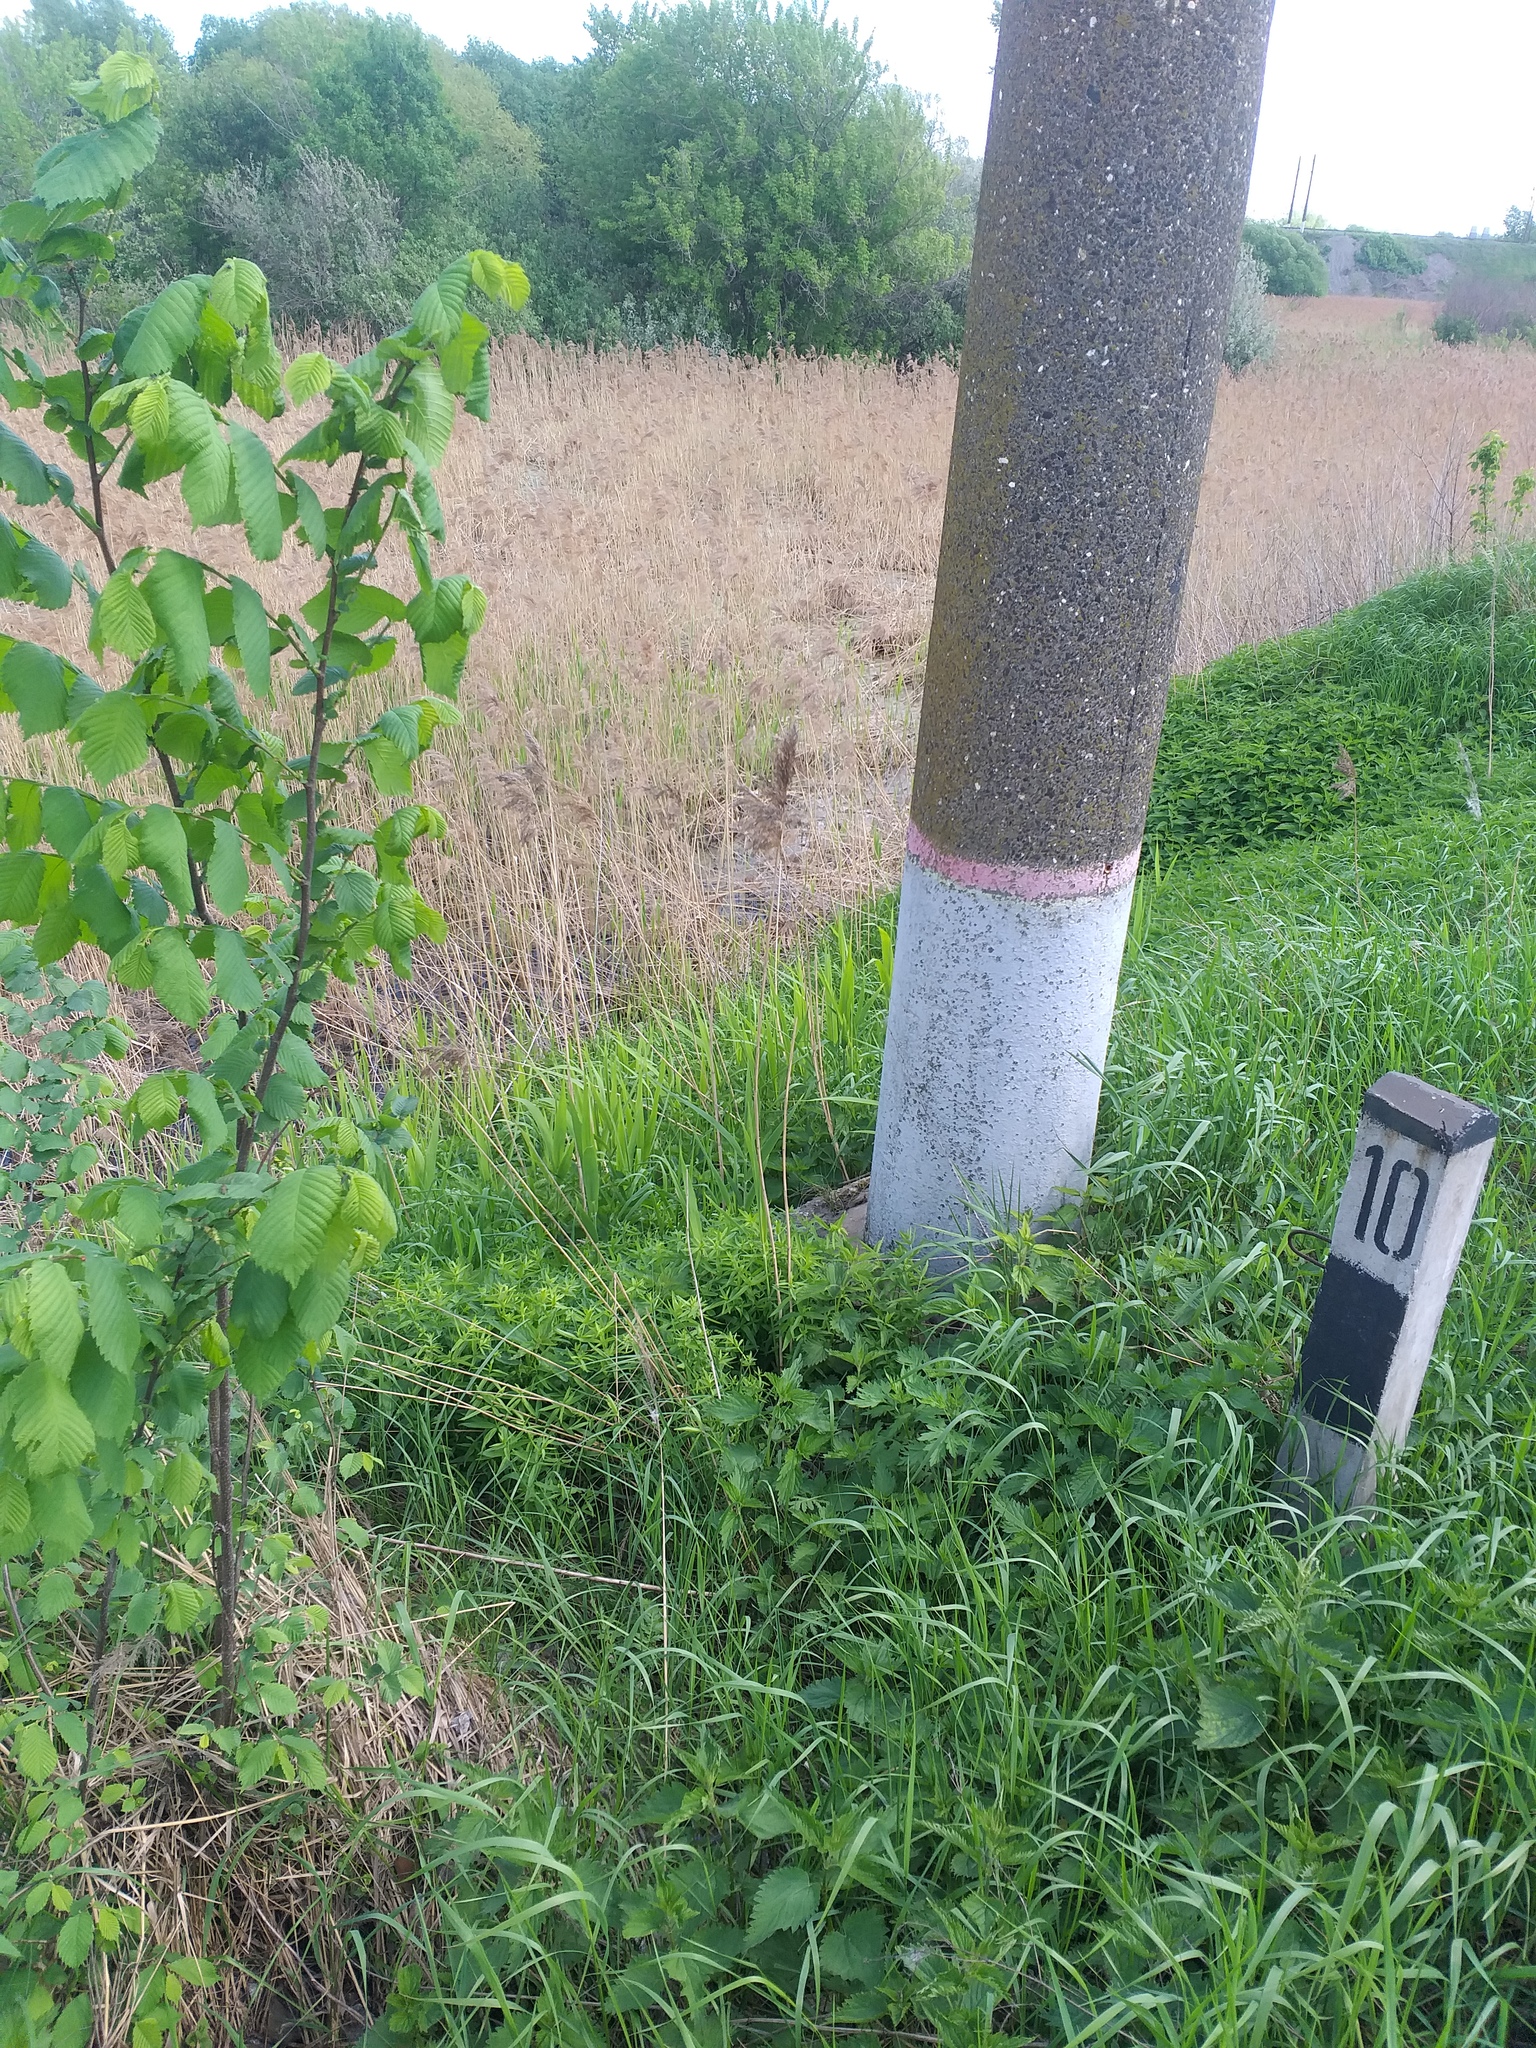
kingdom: Plantae
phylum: Tracheophyta
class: Liliopsida
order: Poales
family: Poaceae
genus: Phragmites
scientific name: Phragmites australis
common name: Common reed
